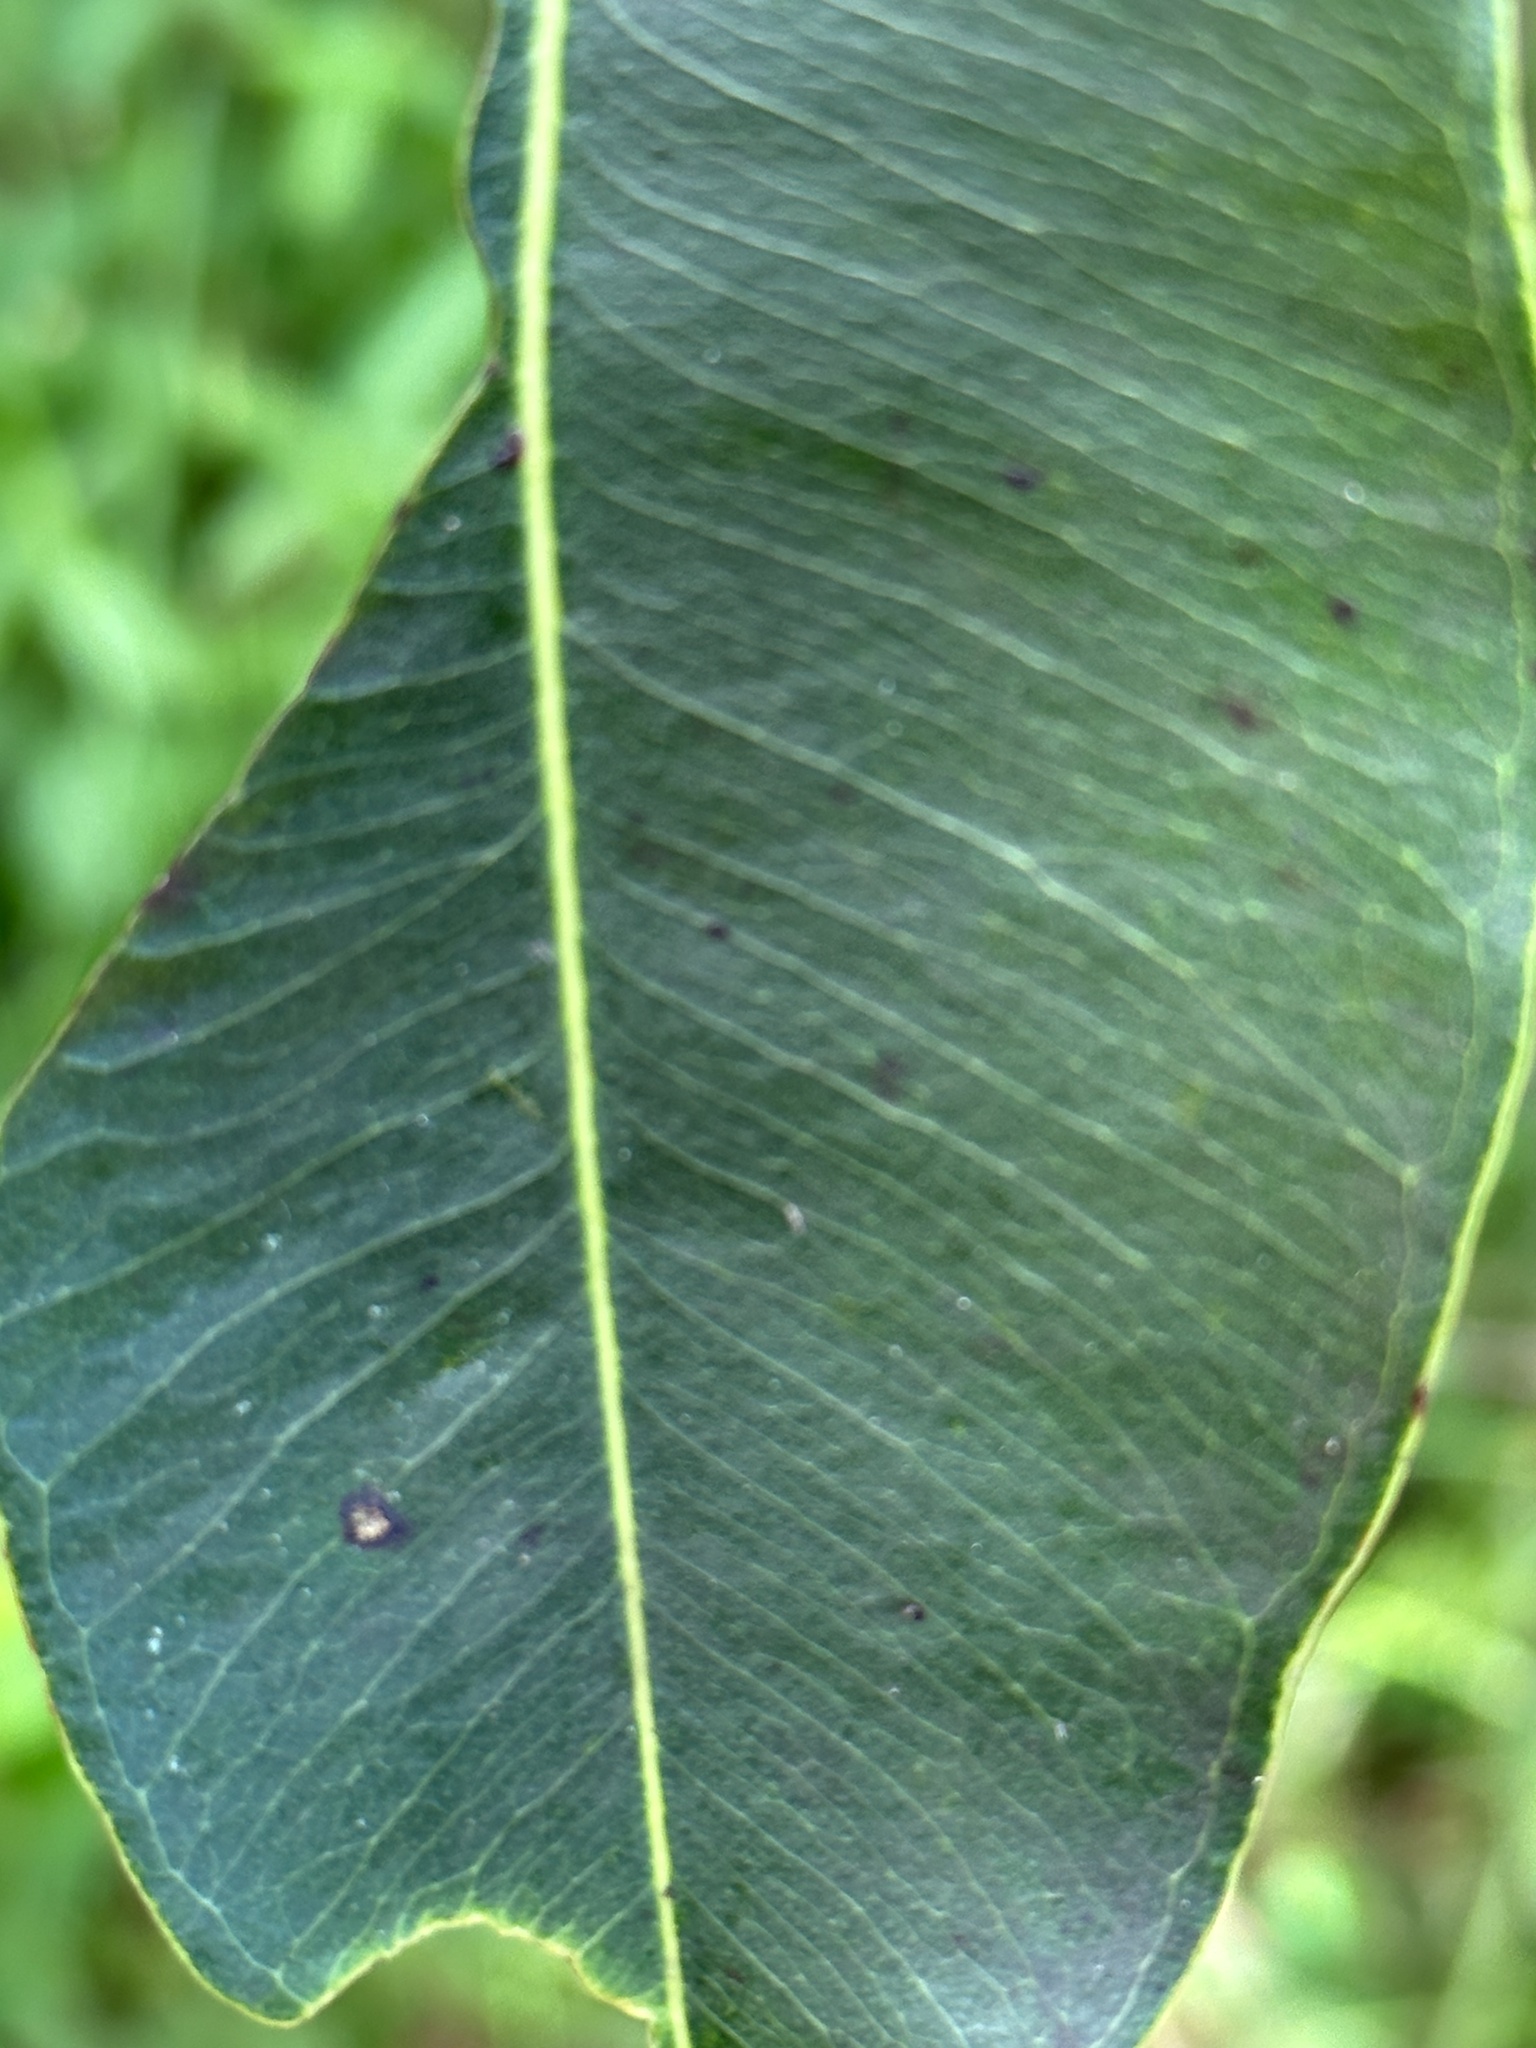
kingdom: Plantae
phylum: Tracheophyta
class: Magnoliopsida
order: Lamiales
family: Verbenaceae
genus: Citharexylum
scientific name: Citharexylum caudatum
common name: Fiddlewood
